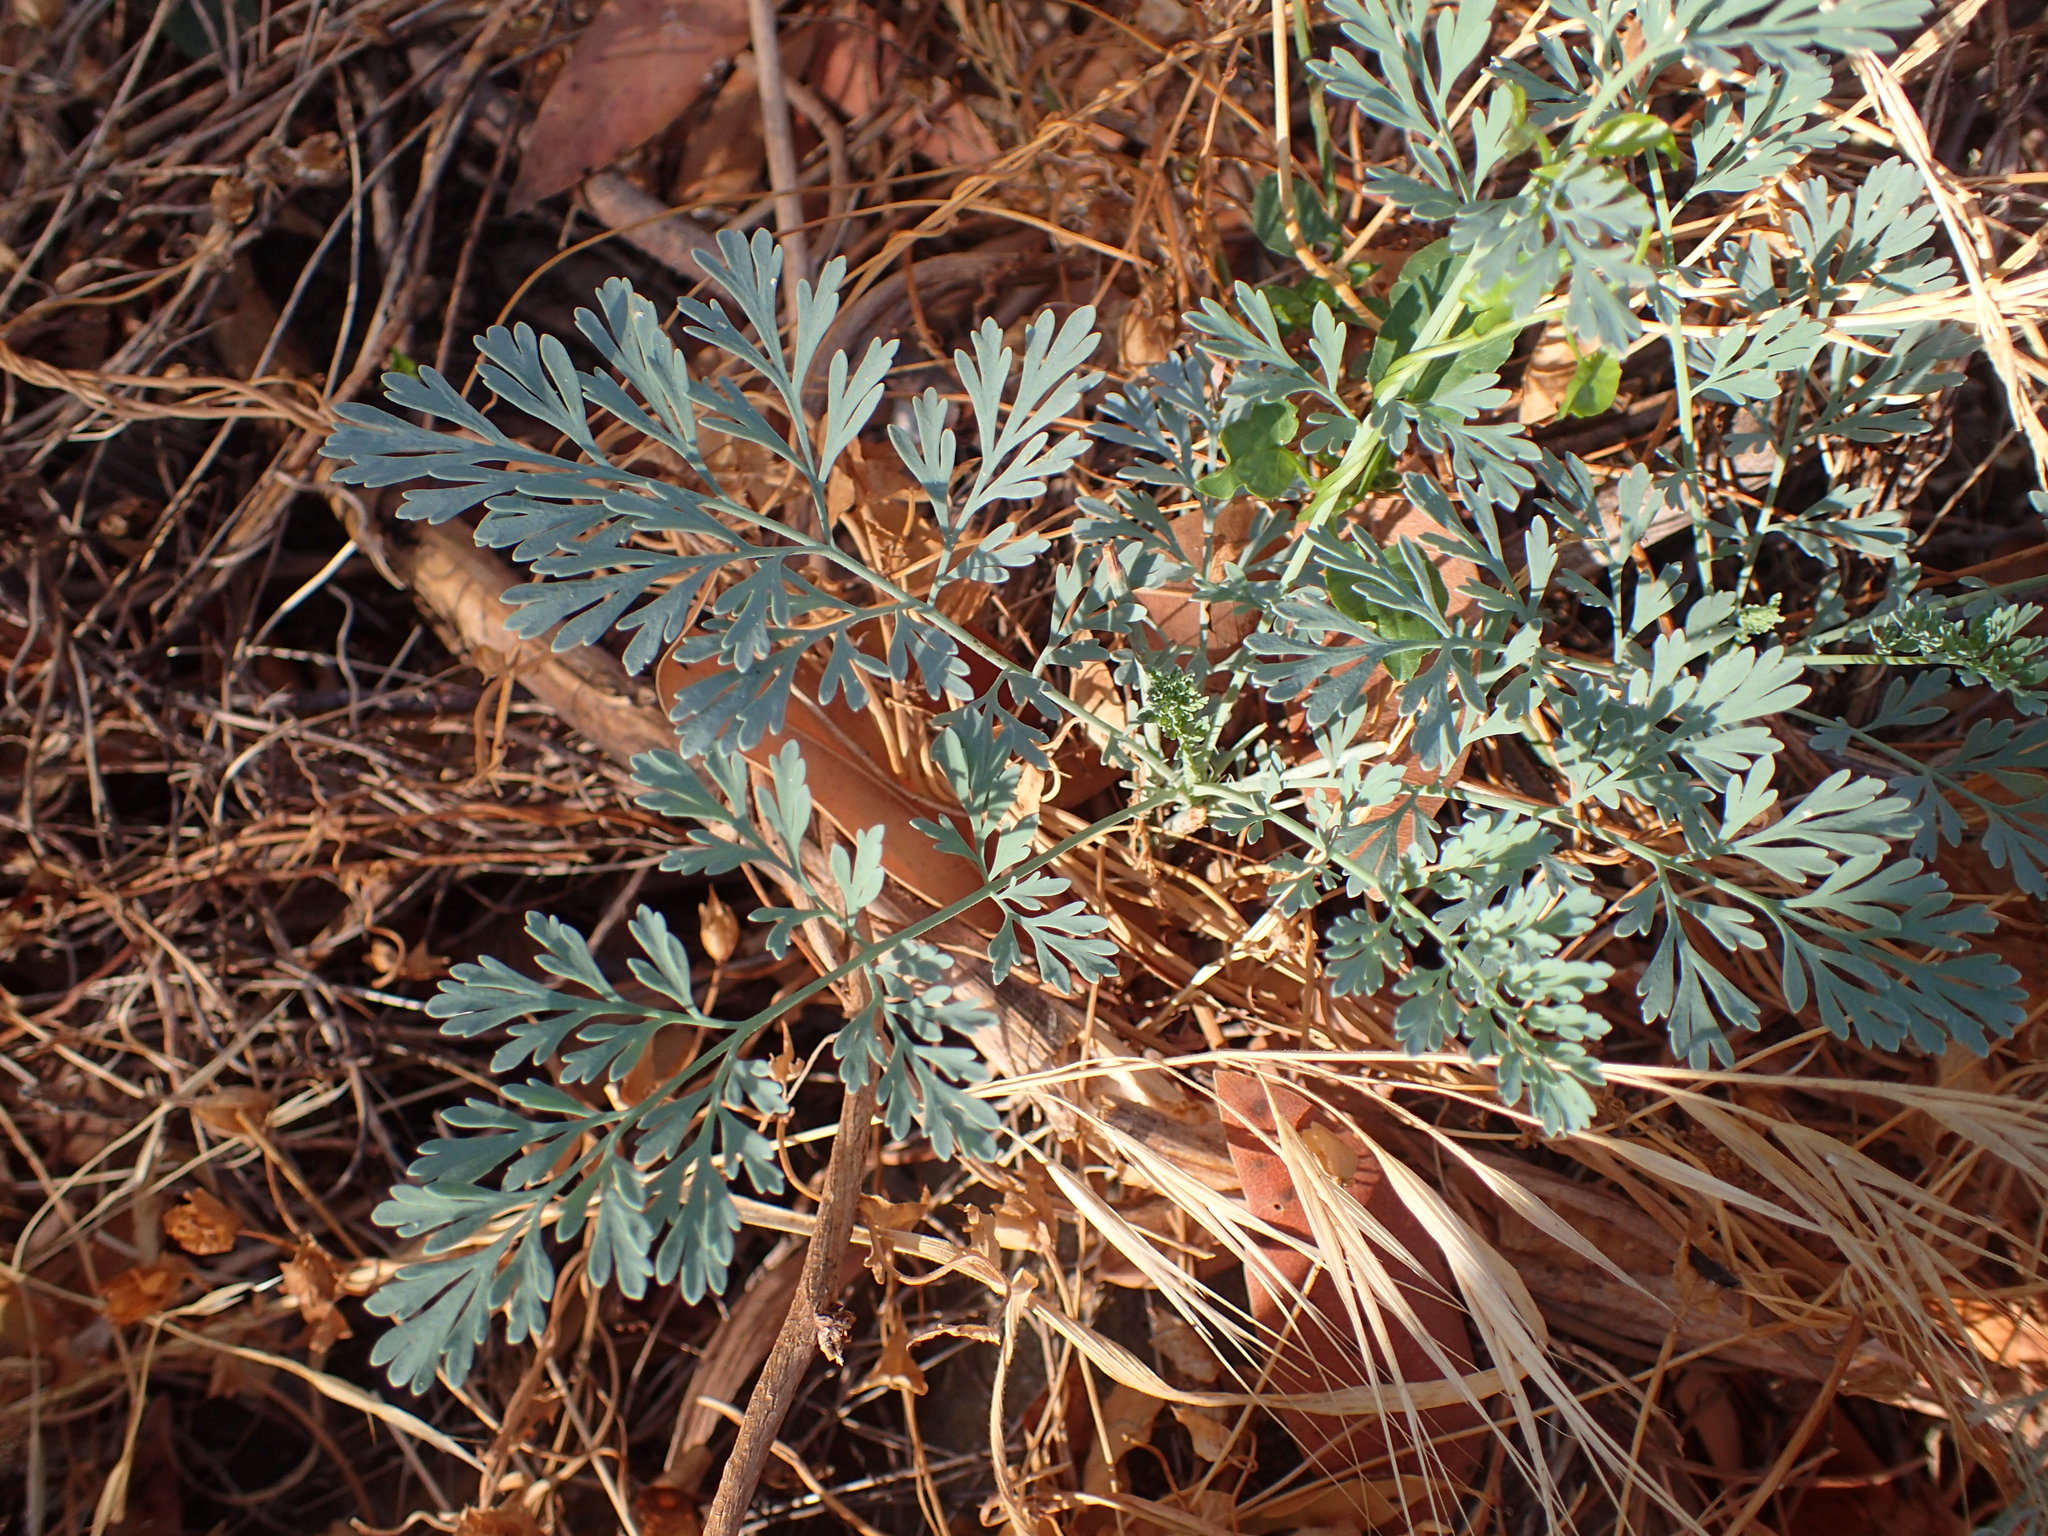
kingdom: Plantae
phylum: Tracheophyta
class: Magnoliopsida
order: Ranunculales
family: Papaveraceae
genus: Ehrendorferia
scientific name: Ehrendorferia chrysantha
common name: Golden eardrops
